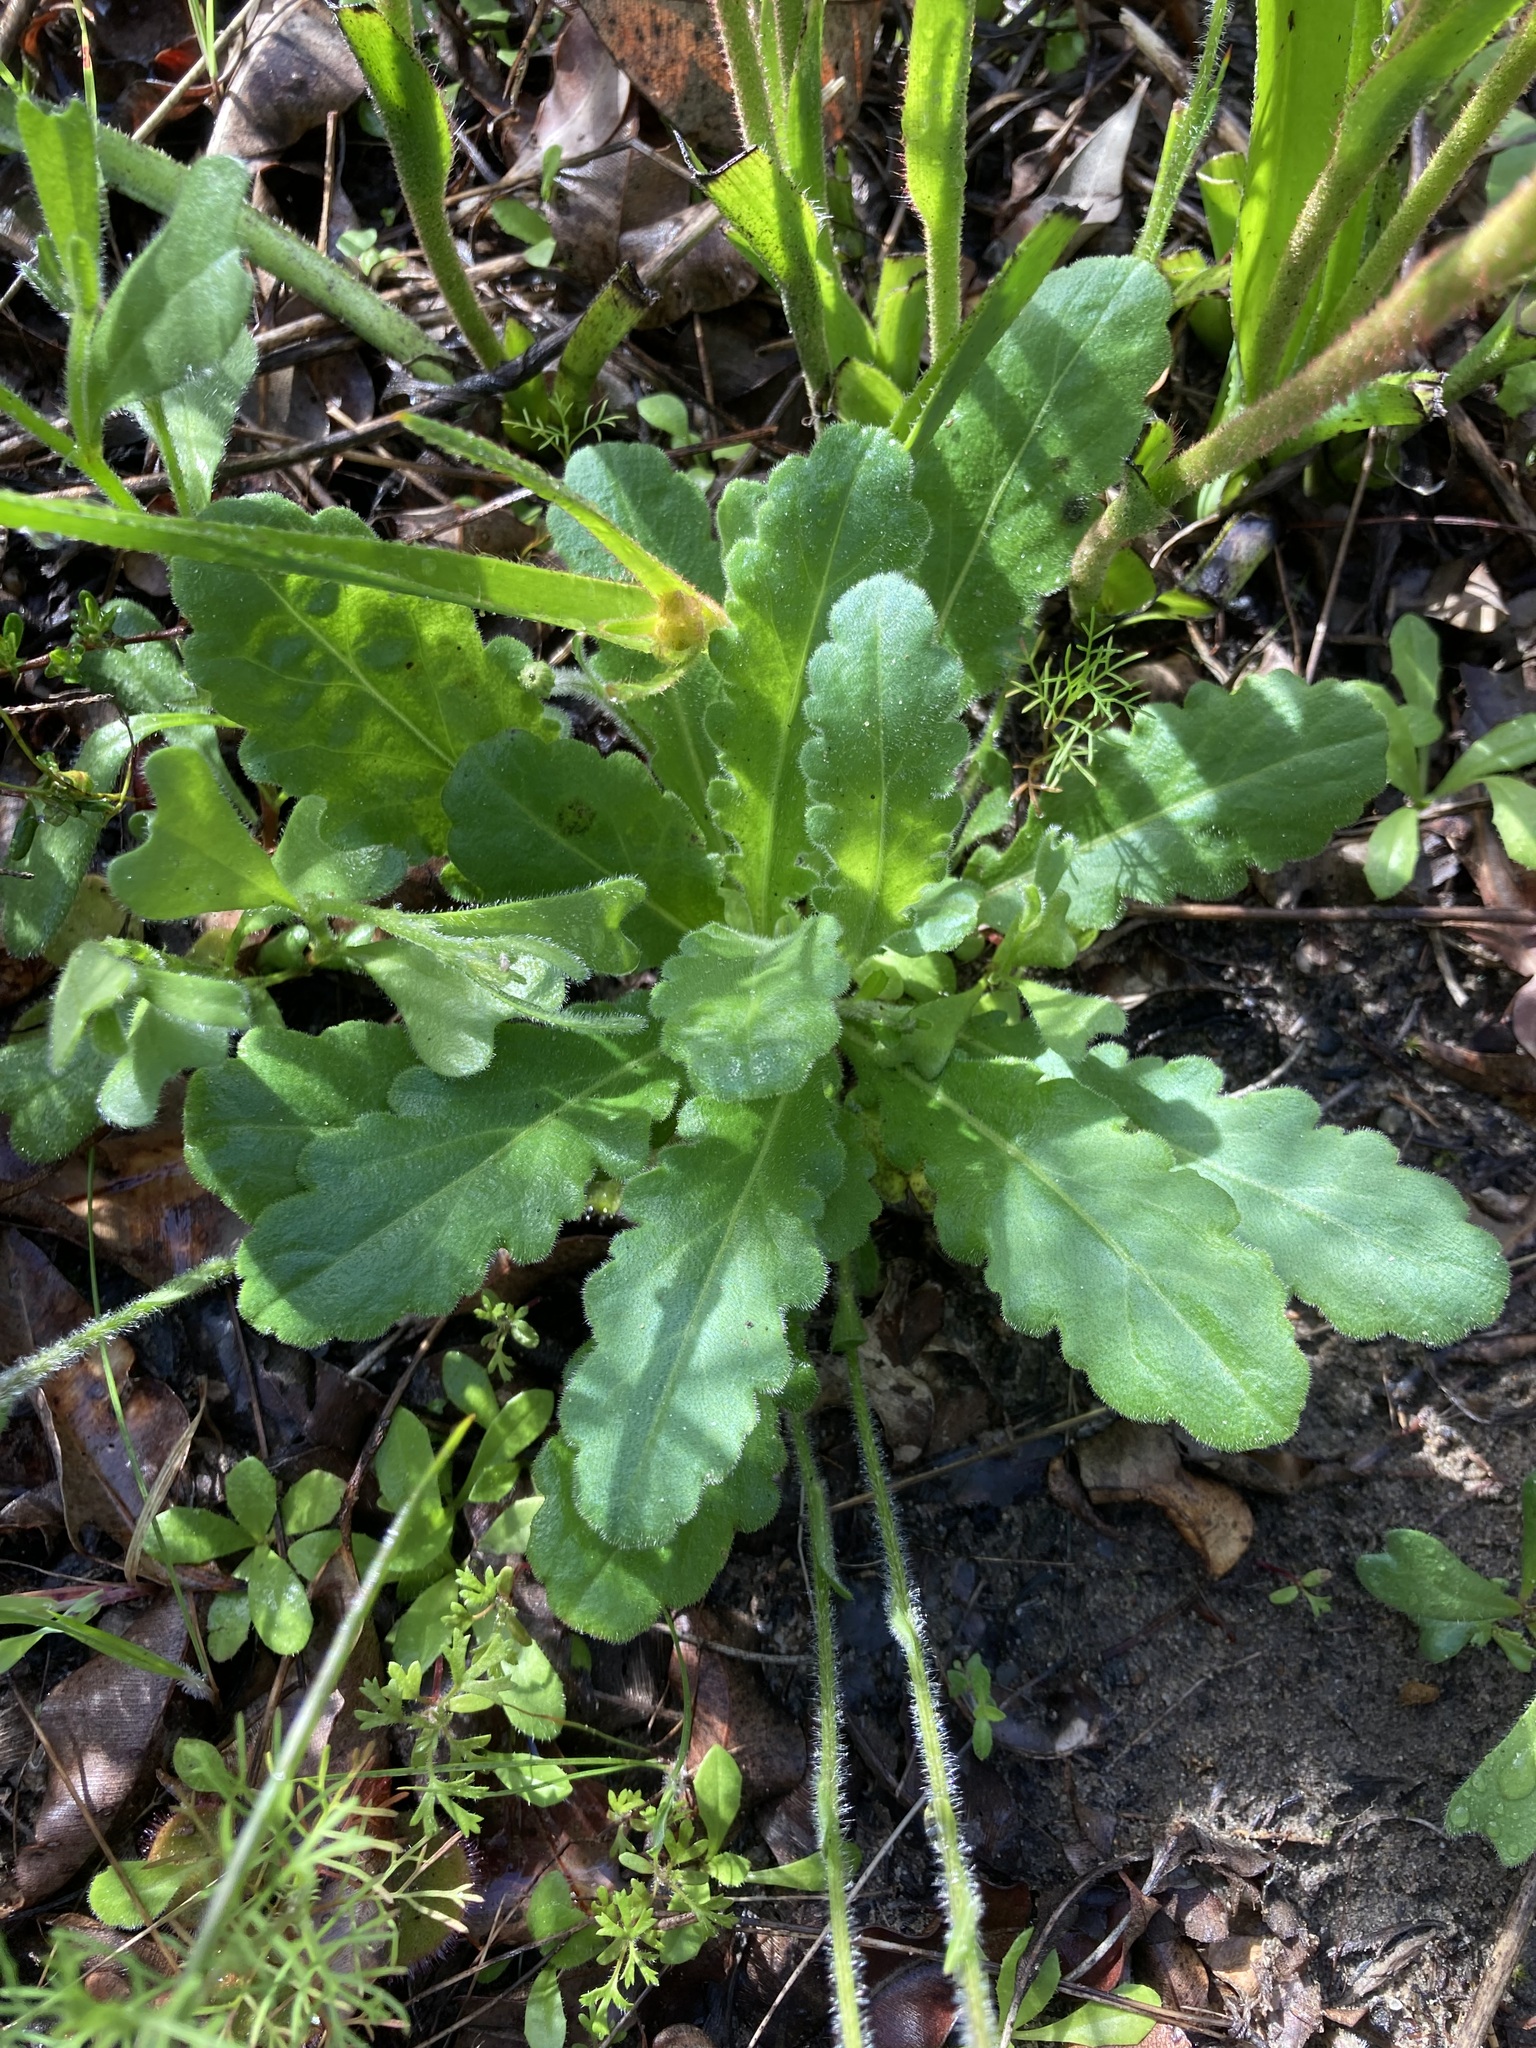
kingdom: Plantae
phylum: Tracheophyta
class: Magnoliopsida
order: Asterales
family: Asteraceae
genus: Lagenophora
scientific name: Lagenophora huegelii
